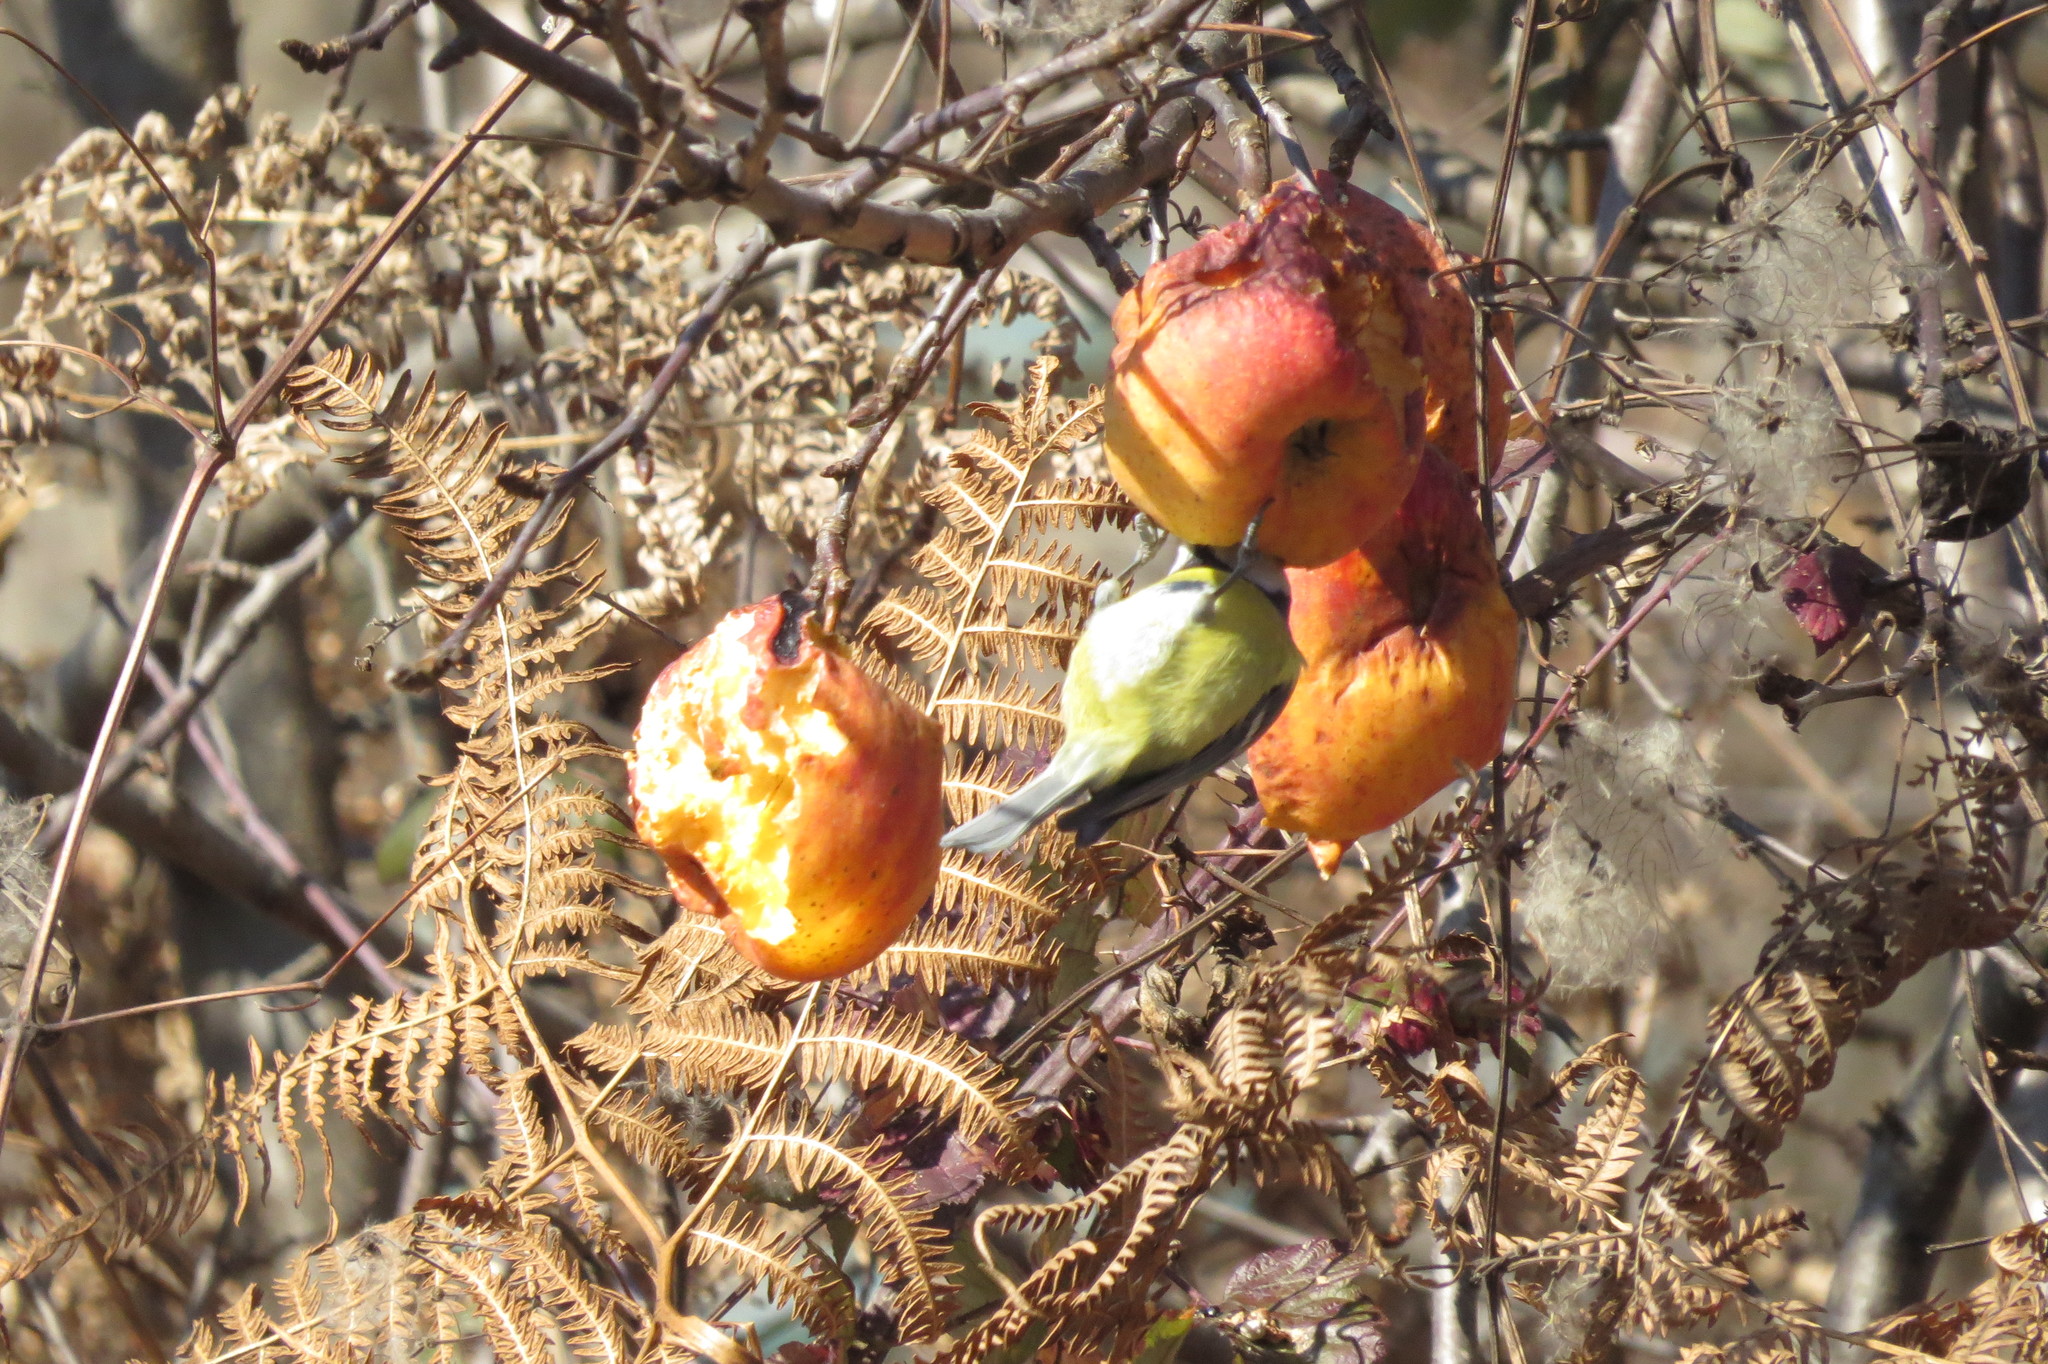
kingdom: Animalia
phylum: Chordata
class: Aves
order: Passeriformes
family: Paridae
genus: Cyanistes
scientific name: Cyanistes caeruleus
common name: Eurasian blue tit
